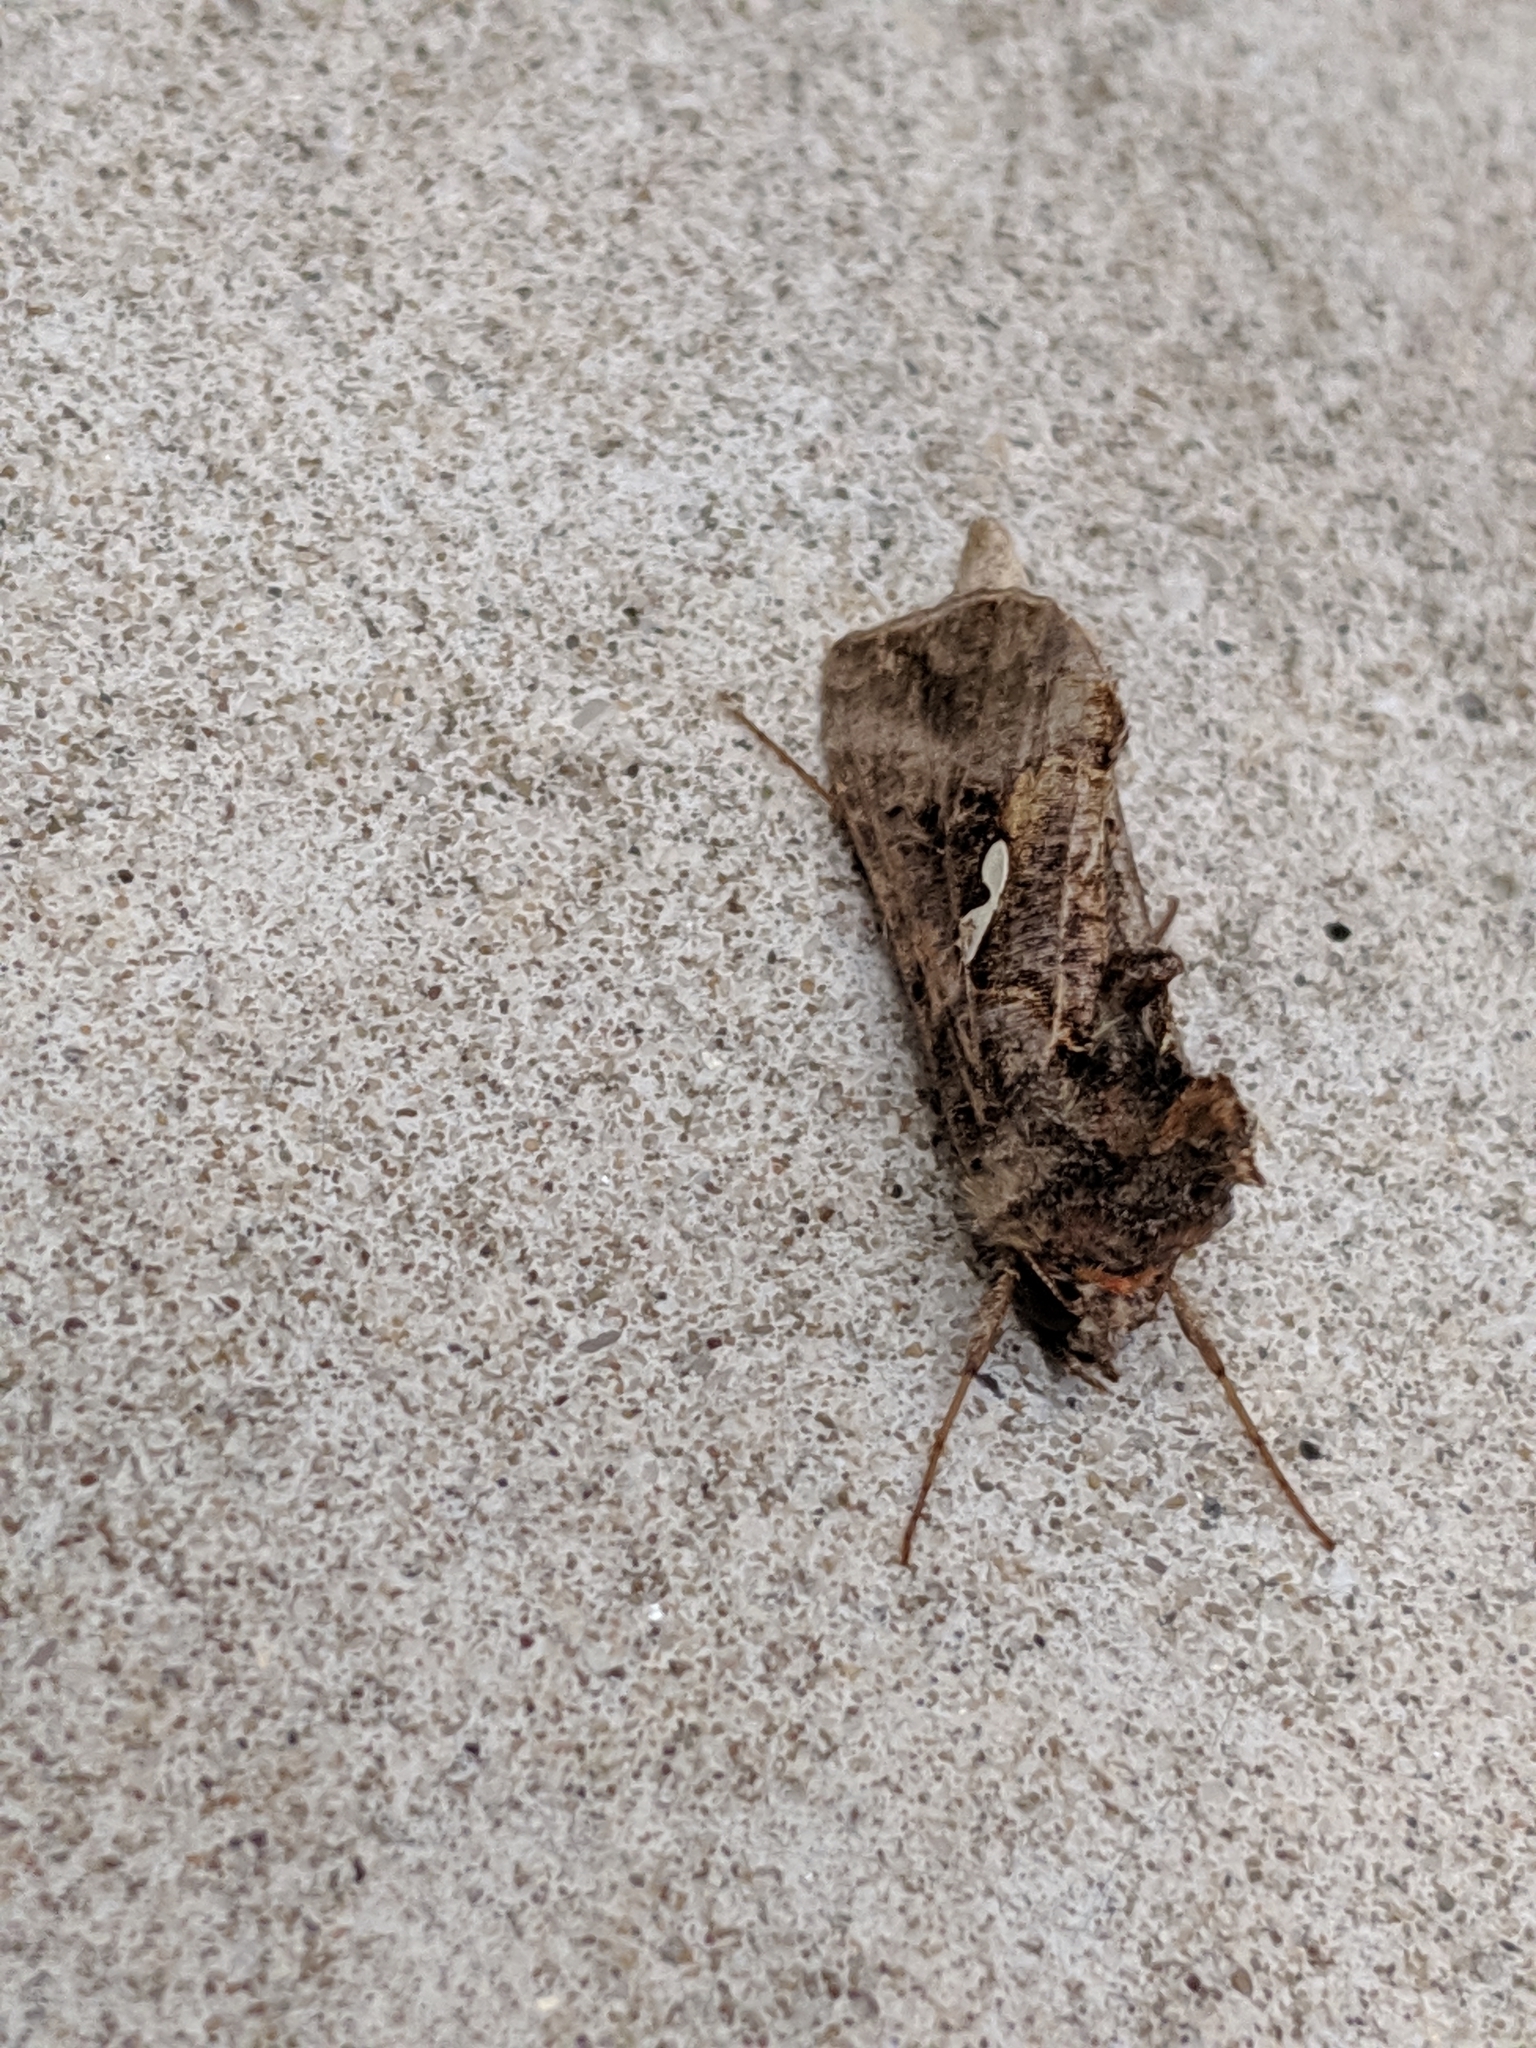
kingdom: Animalia
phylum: Arthropoda
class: Insecta
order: Lepidoptera
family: Noctuidae
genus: Autographa
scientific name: Autographa precationis
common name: Common looper moth
